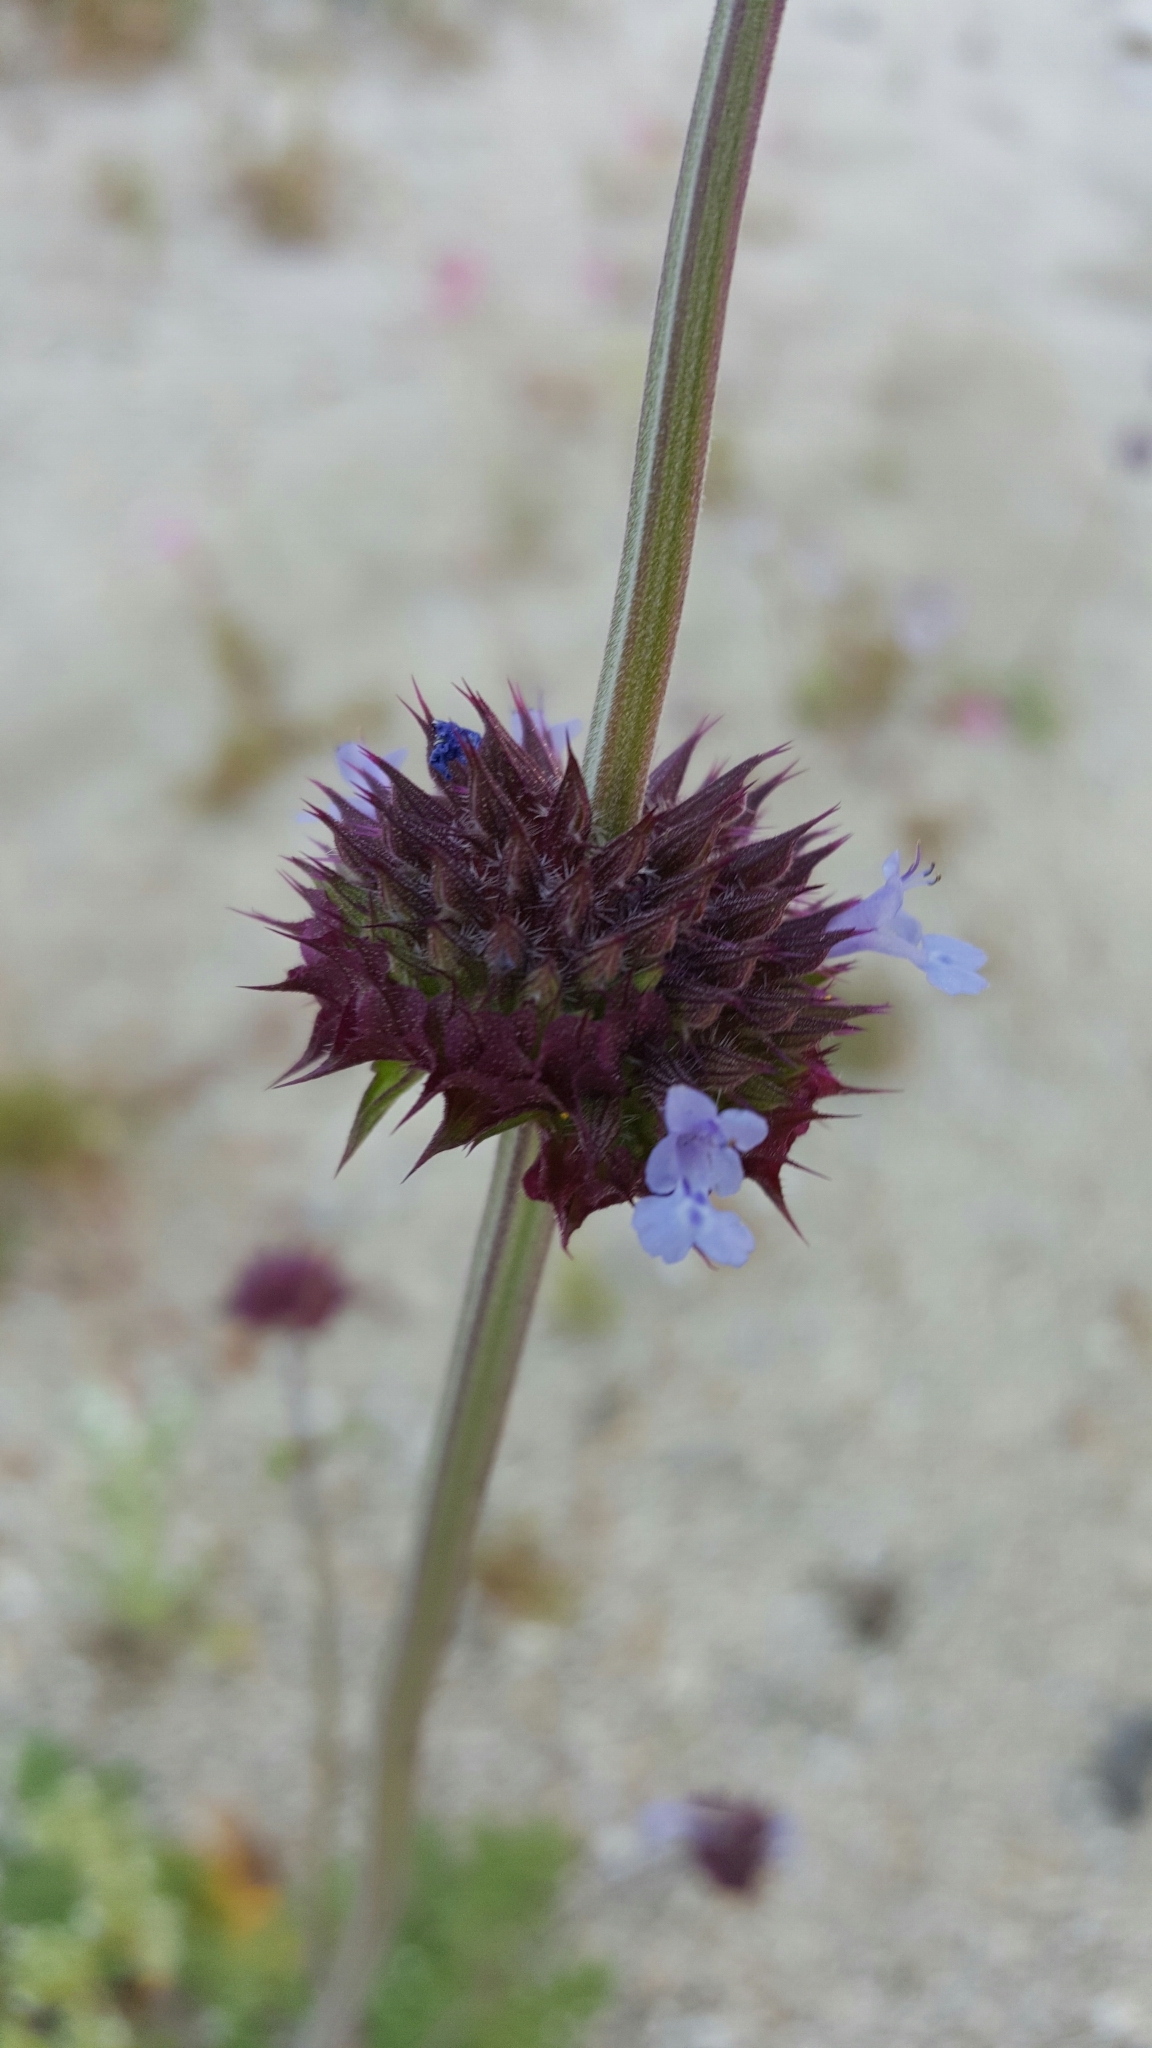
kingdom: Plantae
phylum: Tracheophyta
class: Magnoliopsida
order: Lamiales
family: Lamiaceae
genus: Salvia
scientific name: Salvia columbariae
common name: Chia
